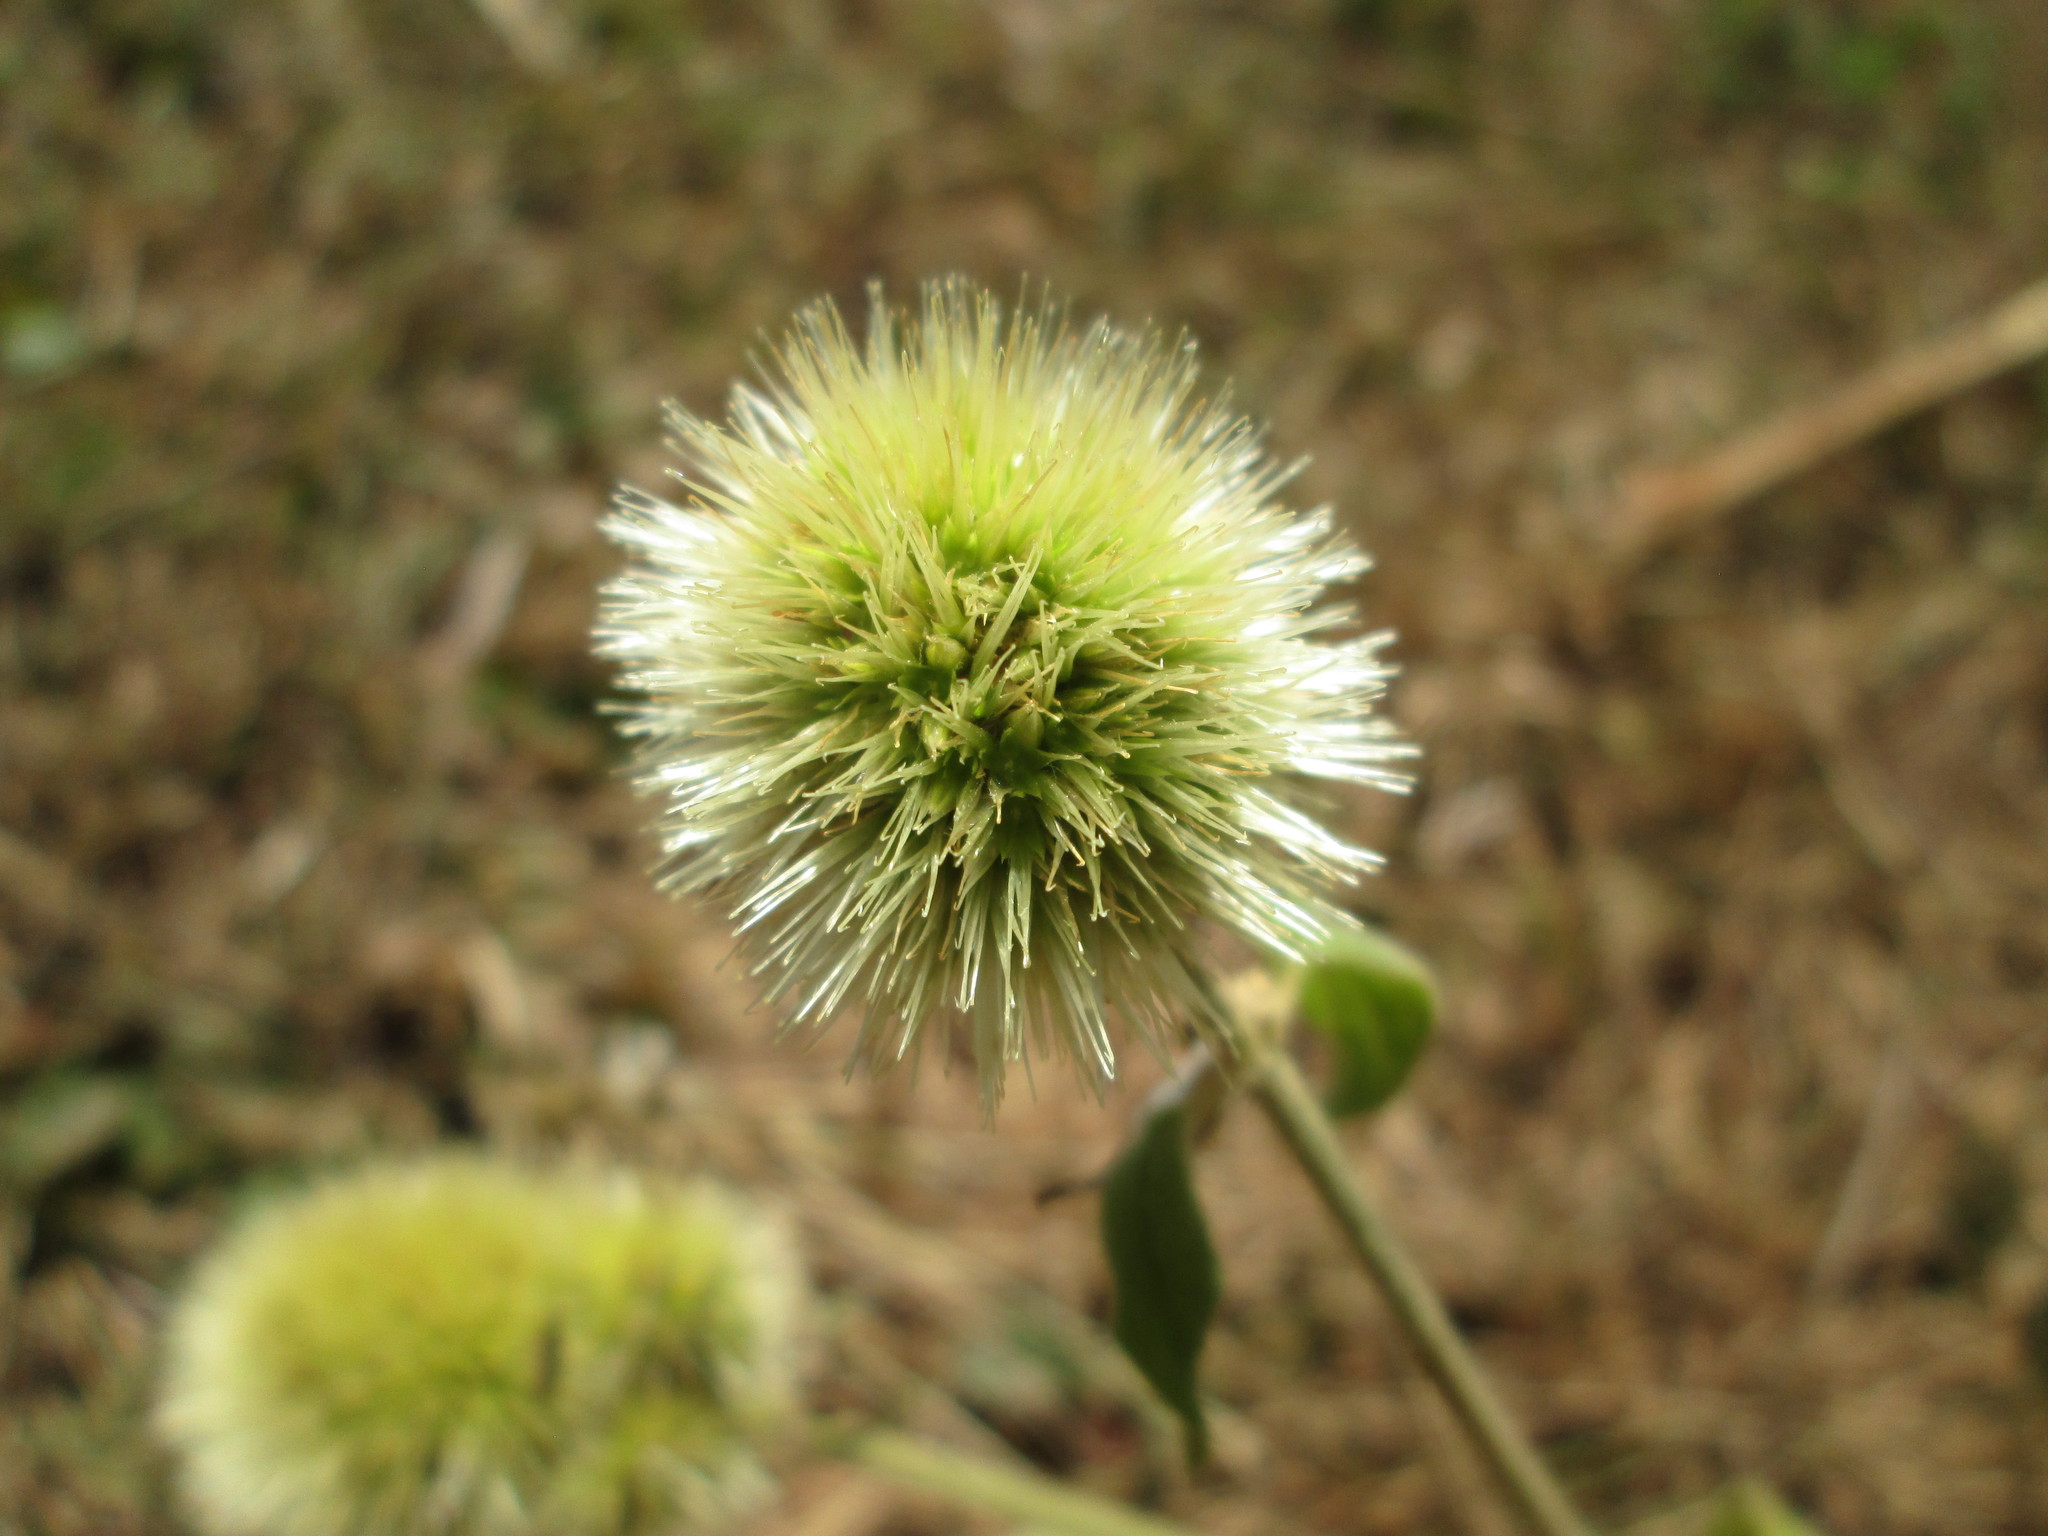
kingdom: Plantae
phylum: Tracheophyta
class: Magnoliopsida
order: Caryophyllales
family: Amaranthaceae
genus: Cyathula
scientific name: Cyathula uncinulata
